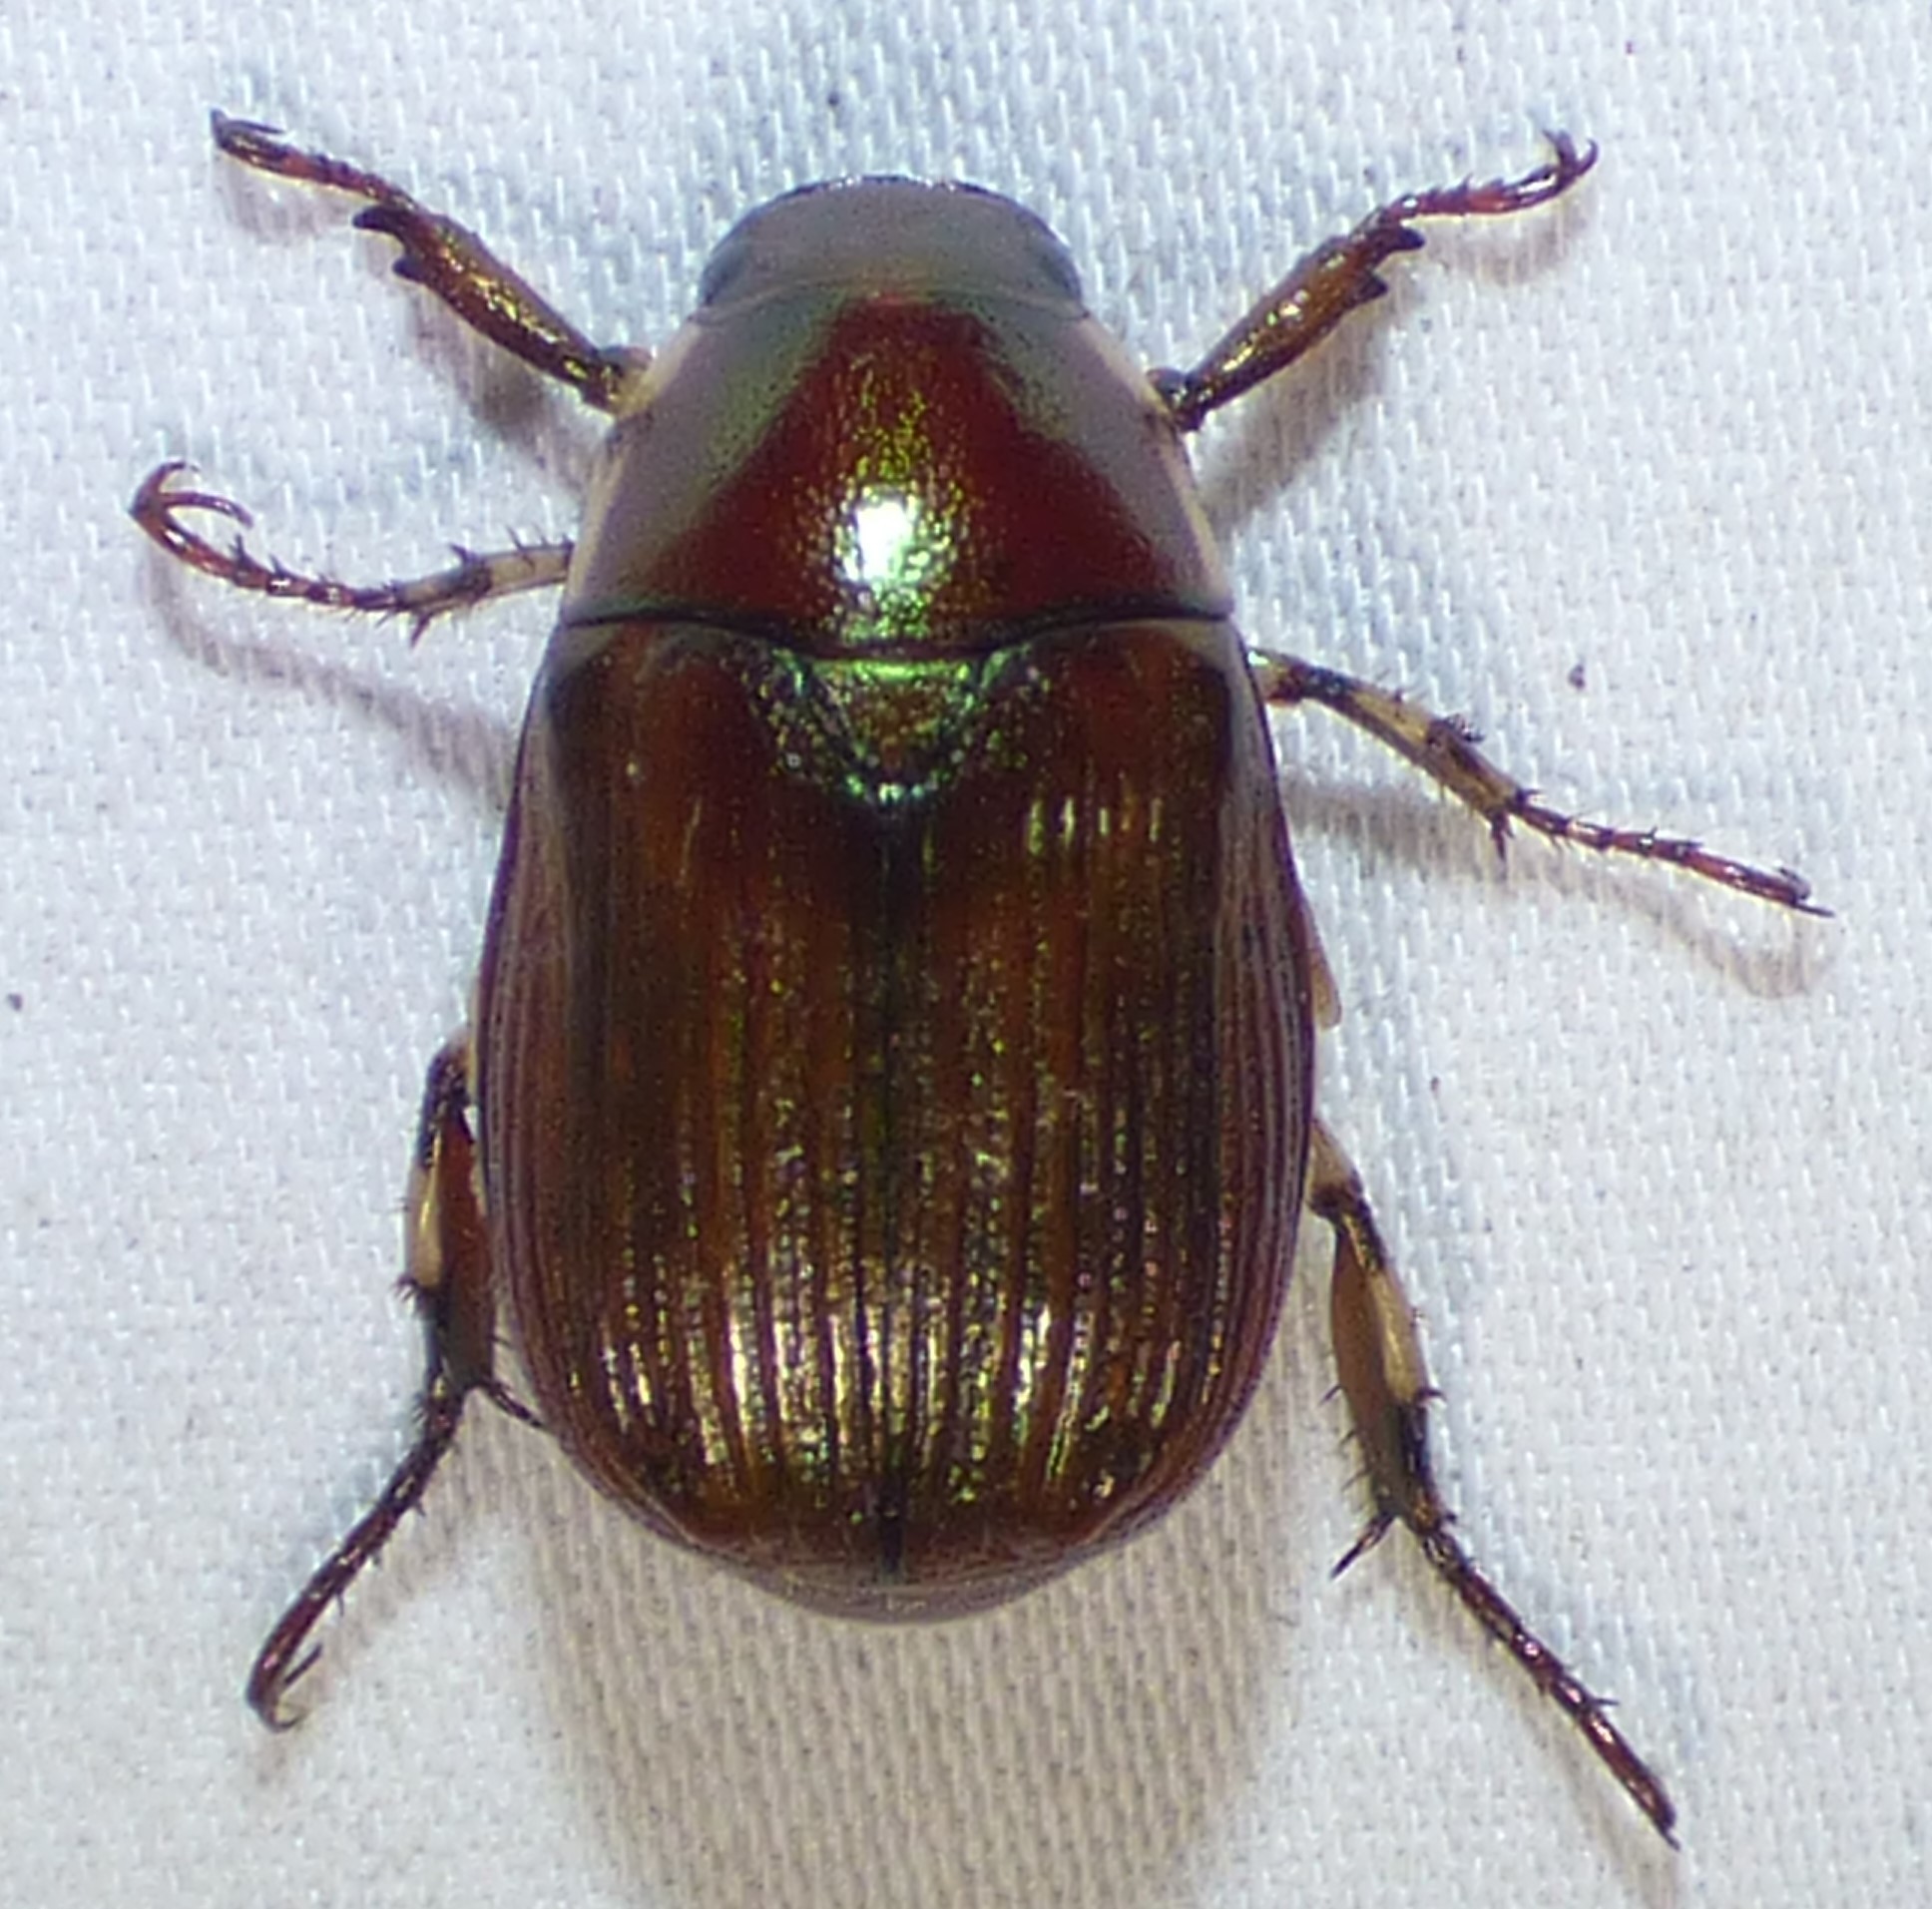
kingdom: Animalia
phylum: Arthropoda
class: Insecta
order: Coleoptera
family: Scarabaeidae
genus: Callistethus
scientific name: Callistethus marginatus
